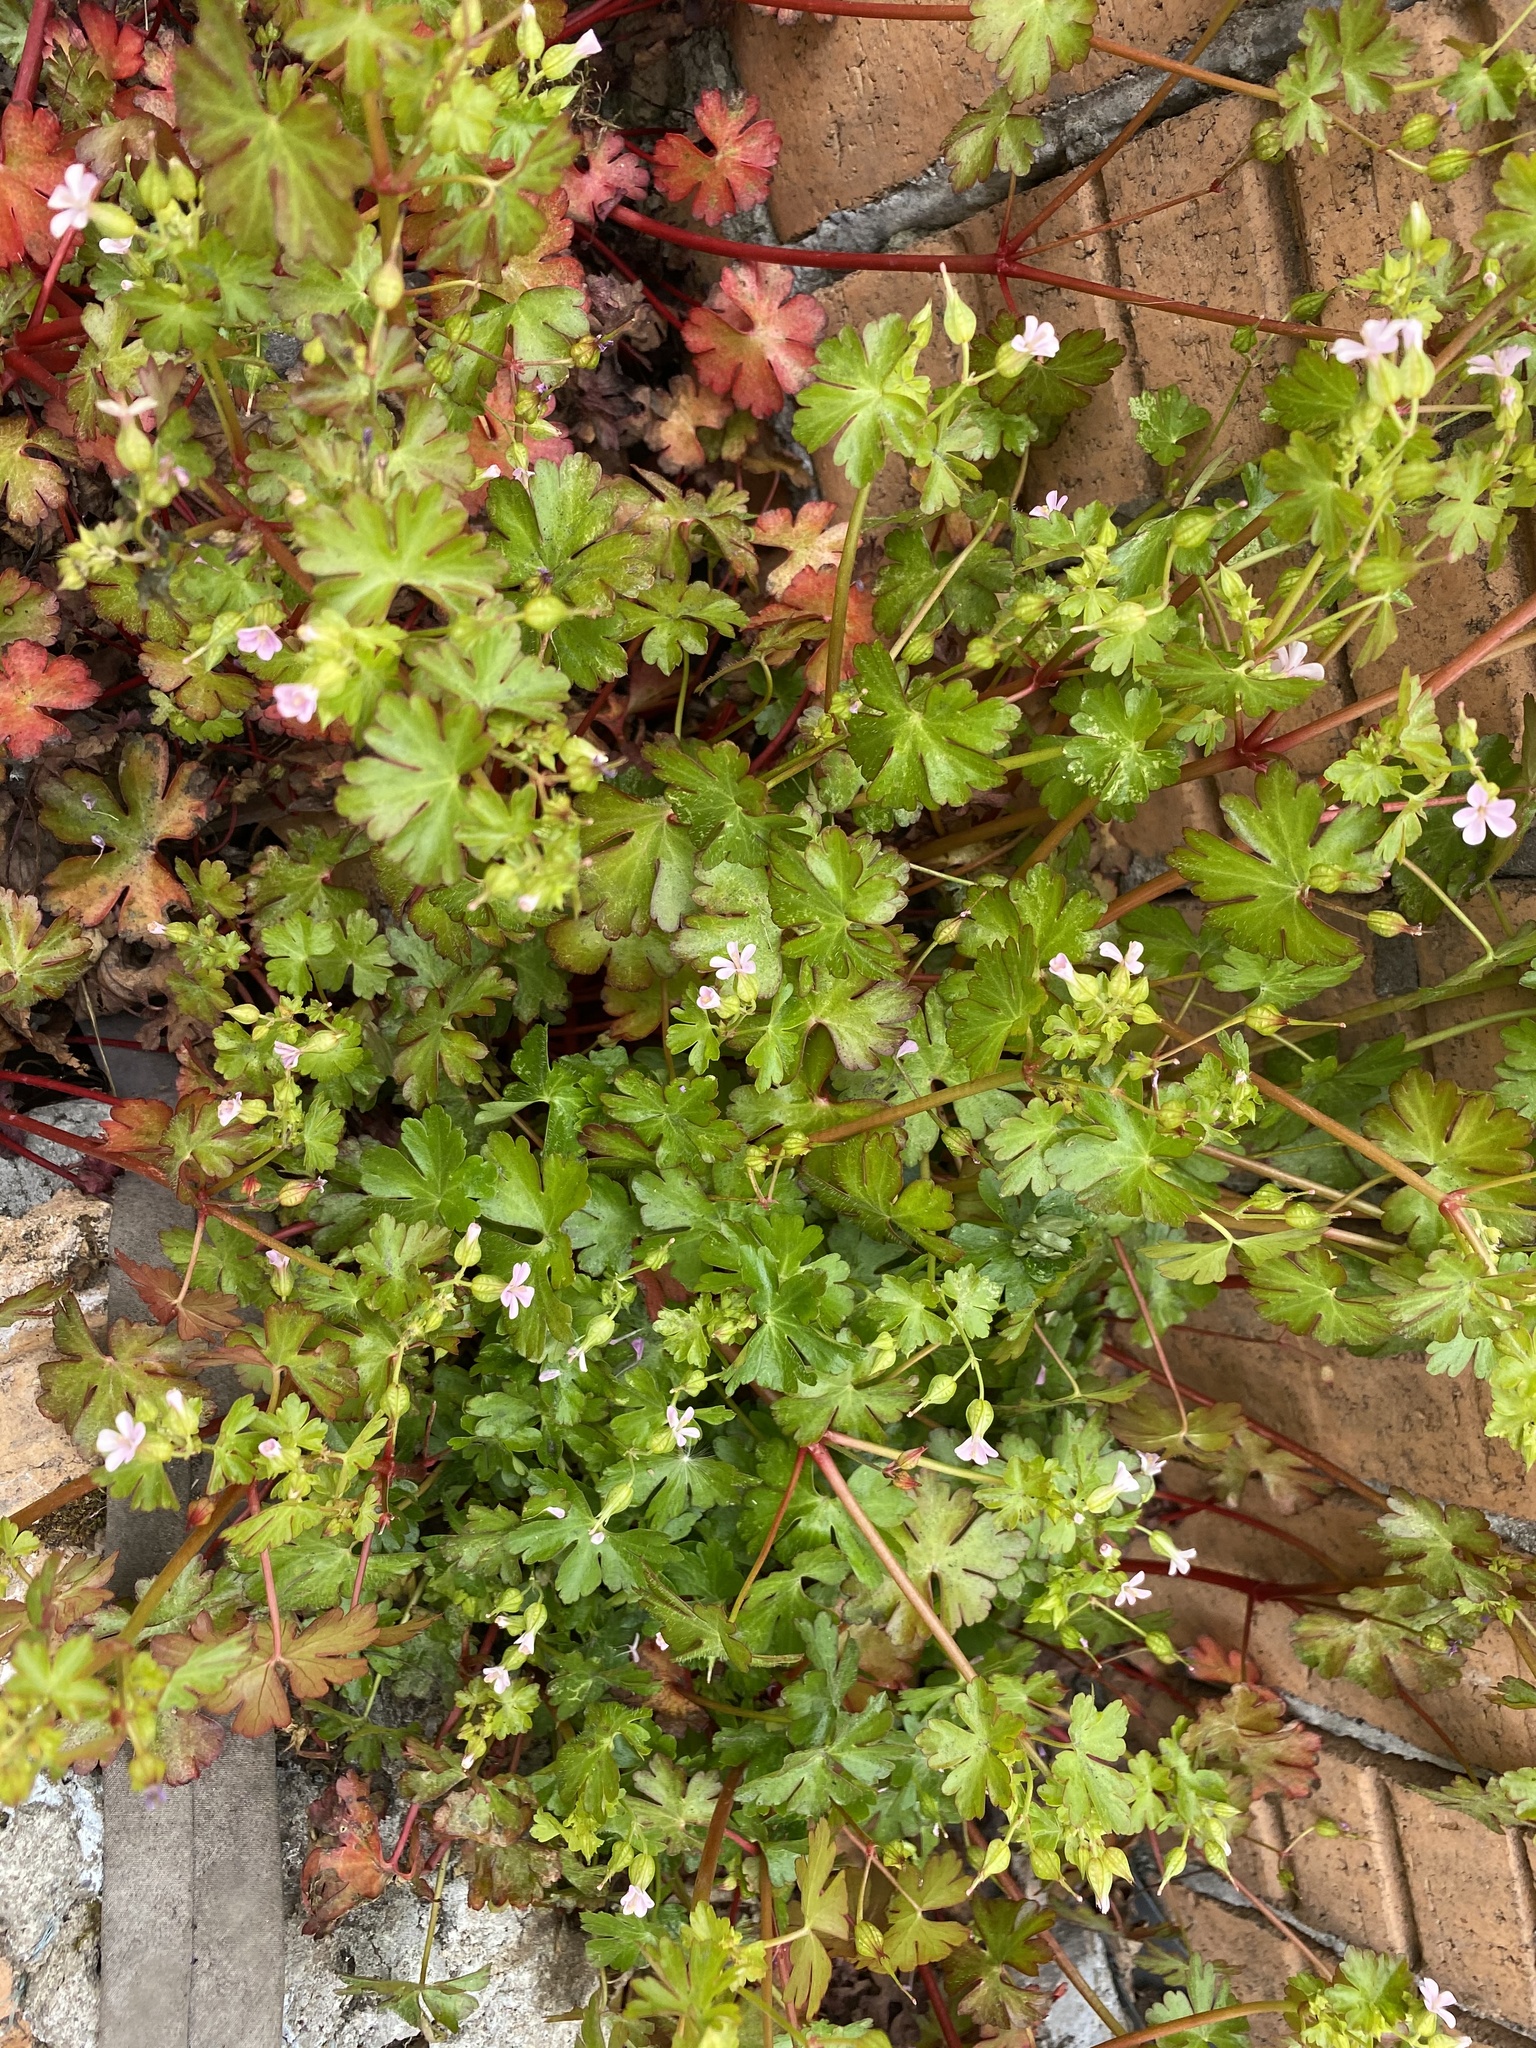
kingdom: Plantae
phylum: Tracheophyta
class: Magnoliopsida
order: Geraniales
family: Geraniaceae
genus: Geranium
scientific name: Geranium lucidum
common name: Shining crane's-bill
